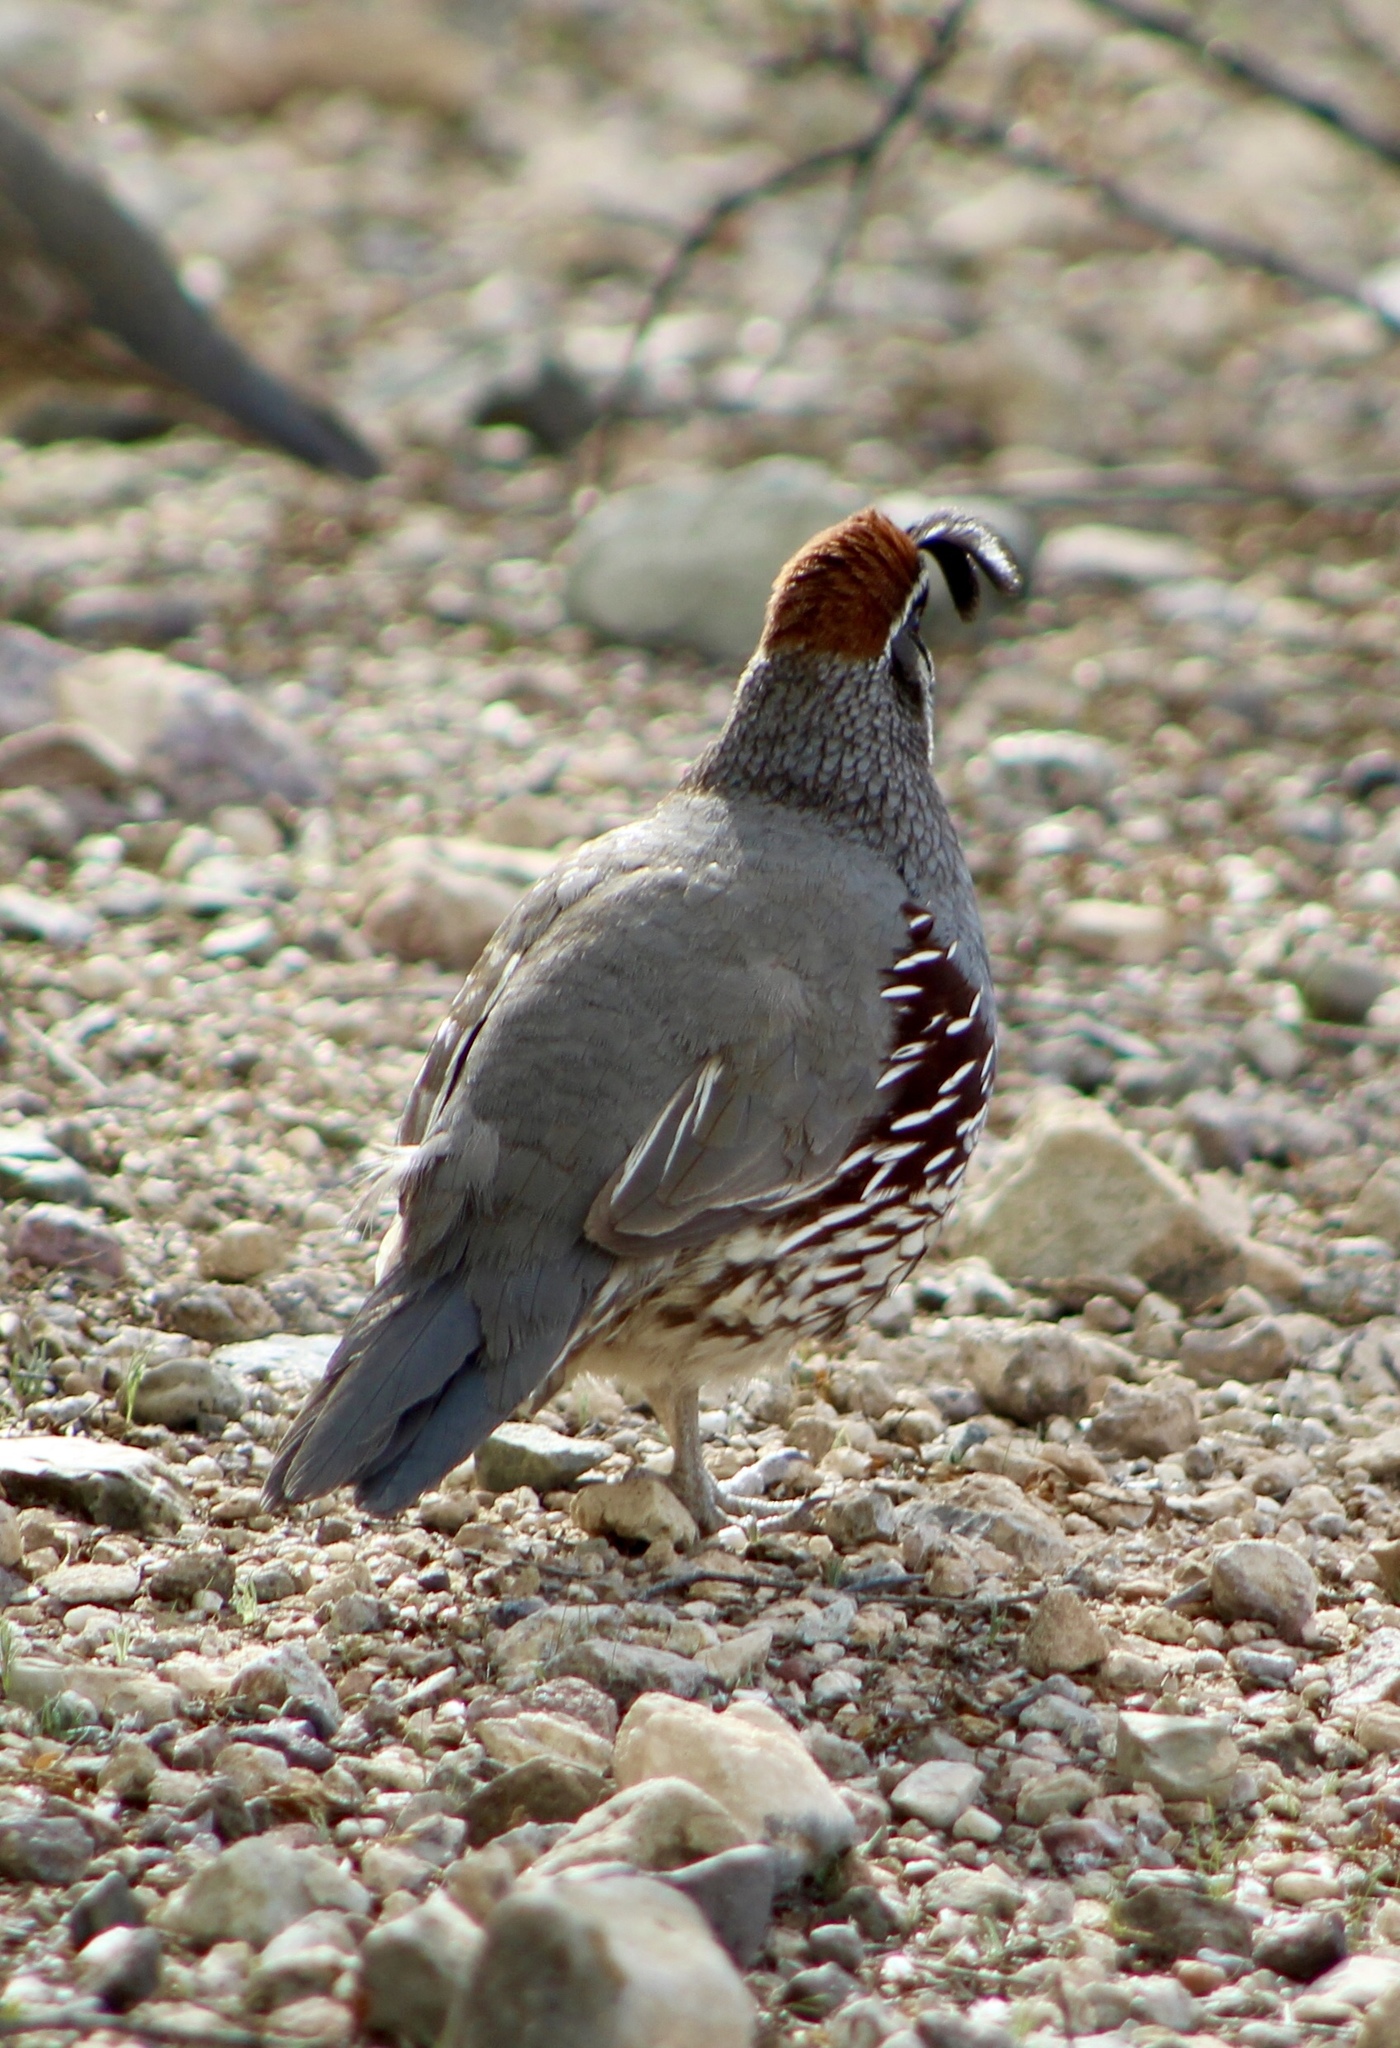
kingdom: Animalia
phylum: Chordata
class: Aves
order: Galliformes
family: Odontophoridae
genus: Callipepla
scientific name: Callipepla gambelii
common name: Gambel's quail
